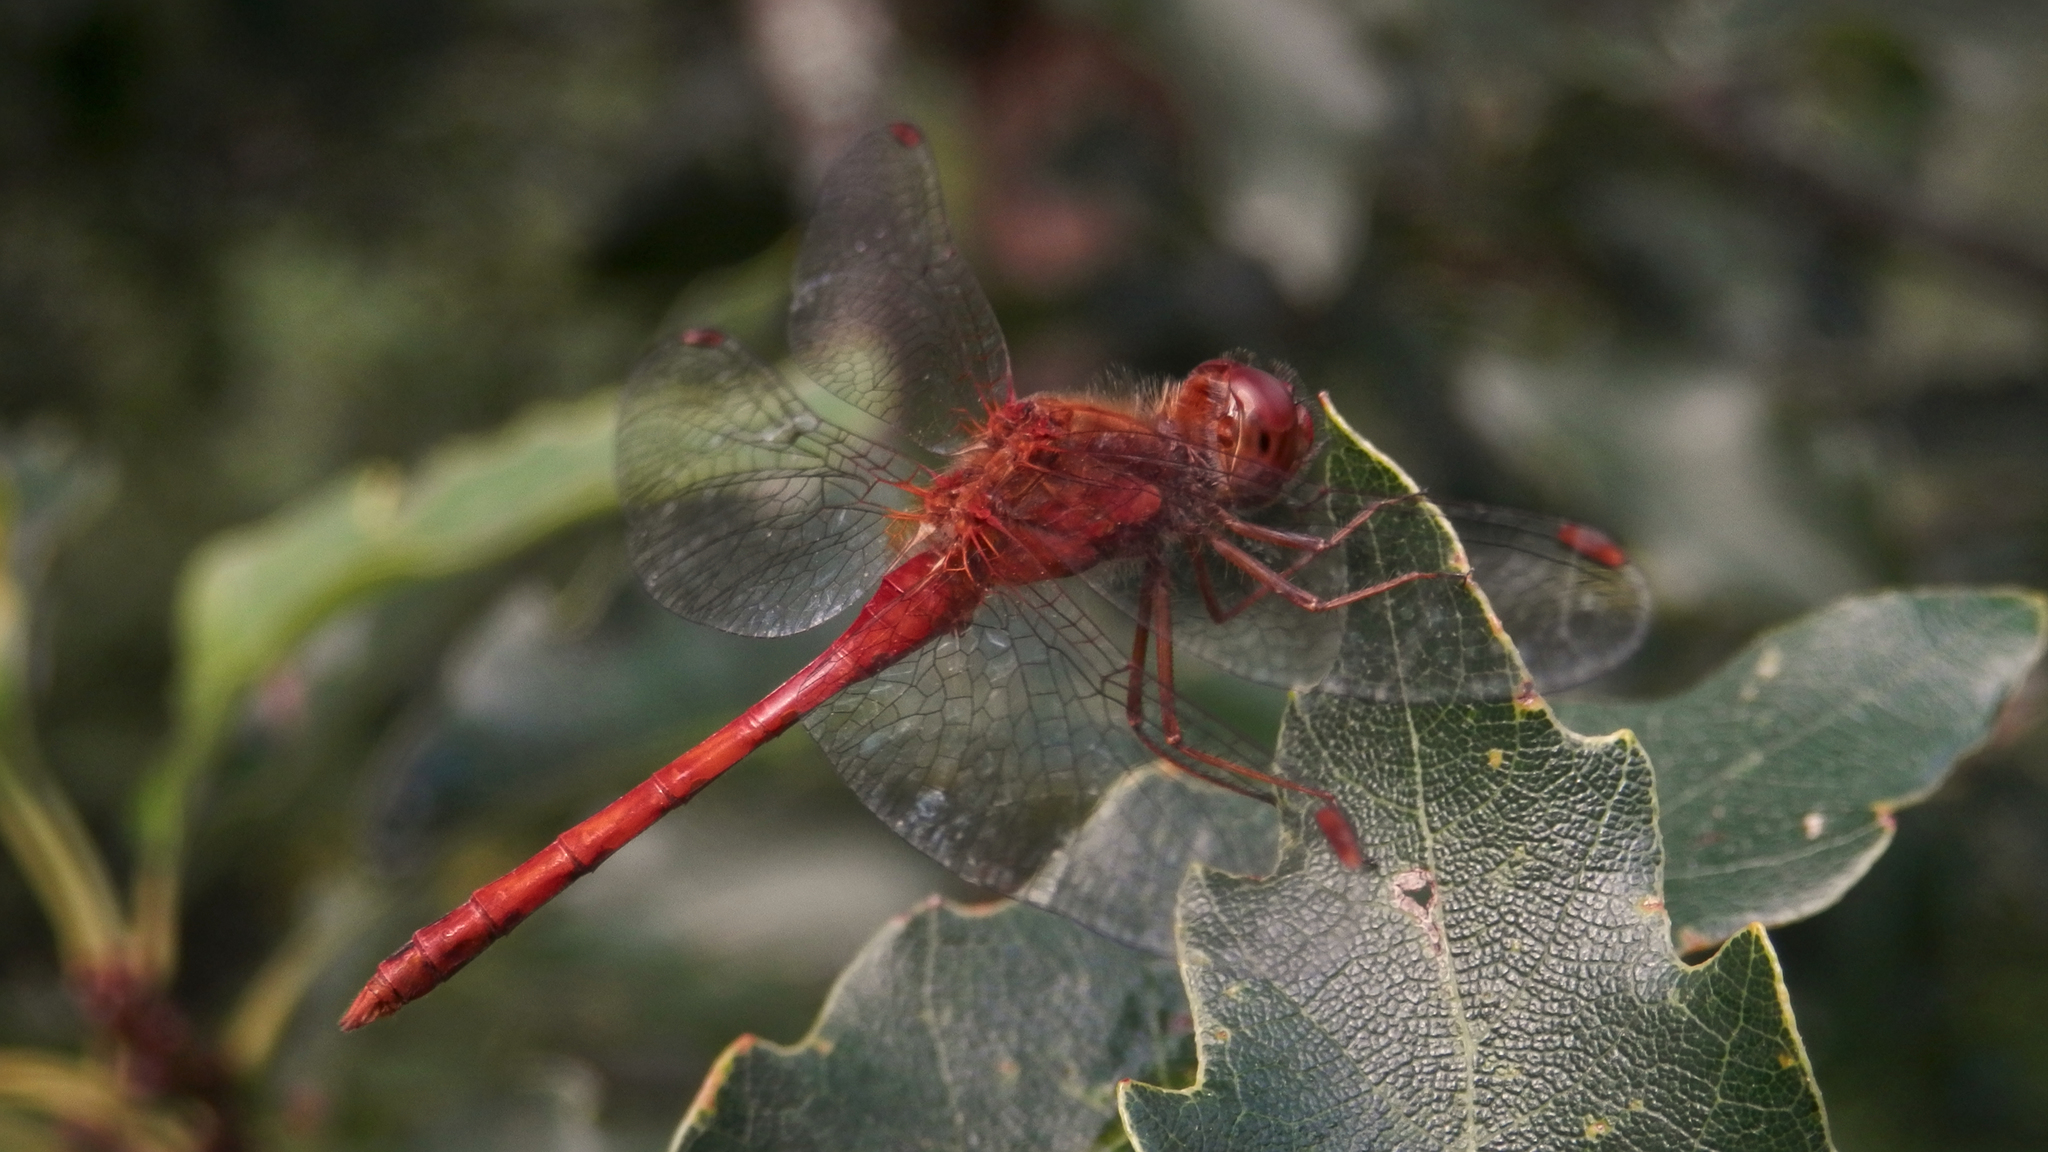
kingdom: Animalia
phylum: Arthropoda
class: Insecta
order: Odonata
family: Libellulidae
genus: Sympetrum
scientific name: Sympetrum vicinum
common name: Autumn meadowhawk
